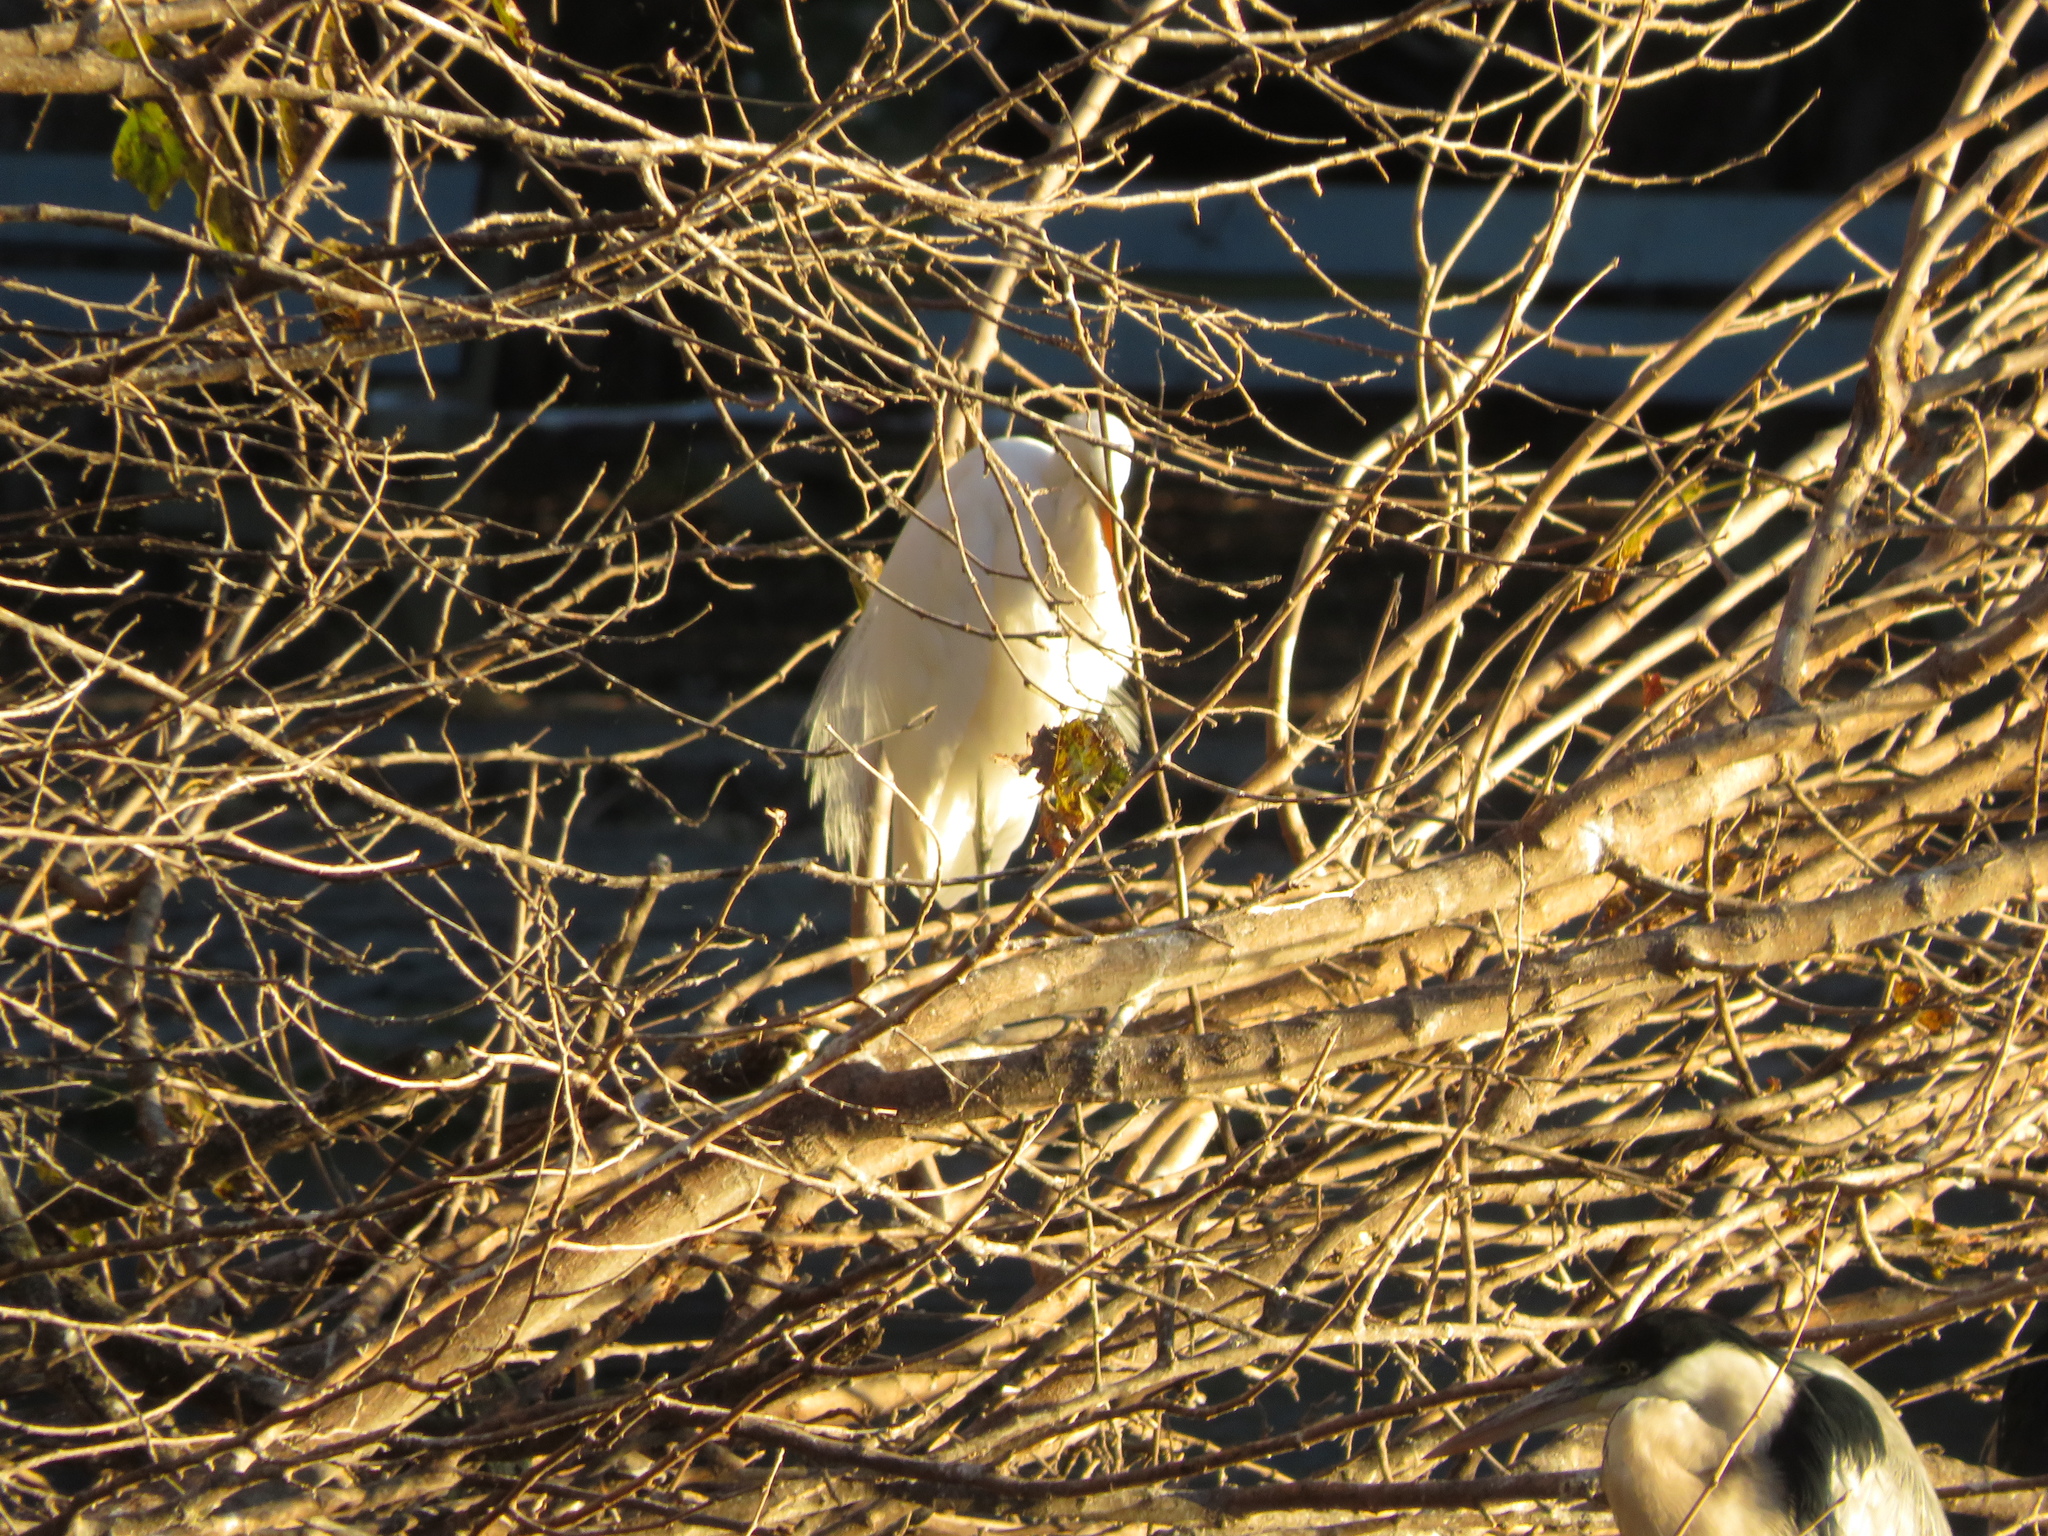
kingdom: Animalia
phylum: Chordata
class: Aves
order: Pelecaniformes
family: Ardeidae
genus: Ardea
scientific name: Ardea alba
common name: Great egret
